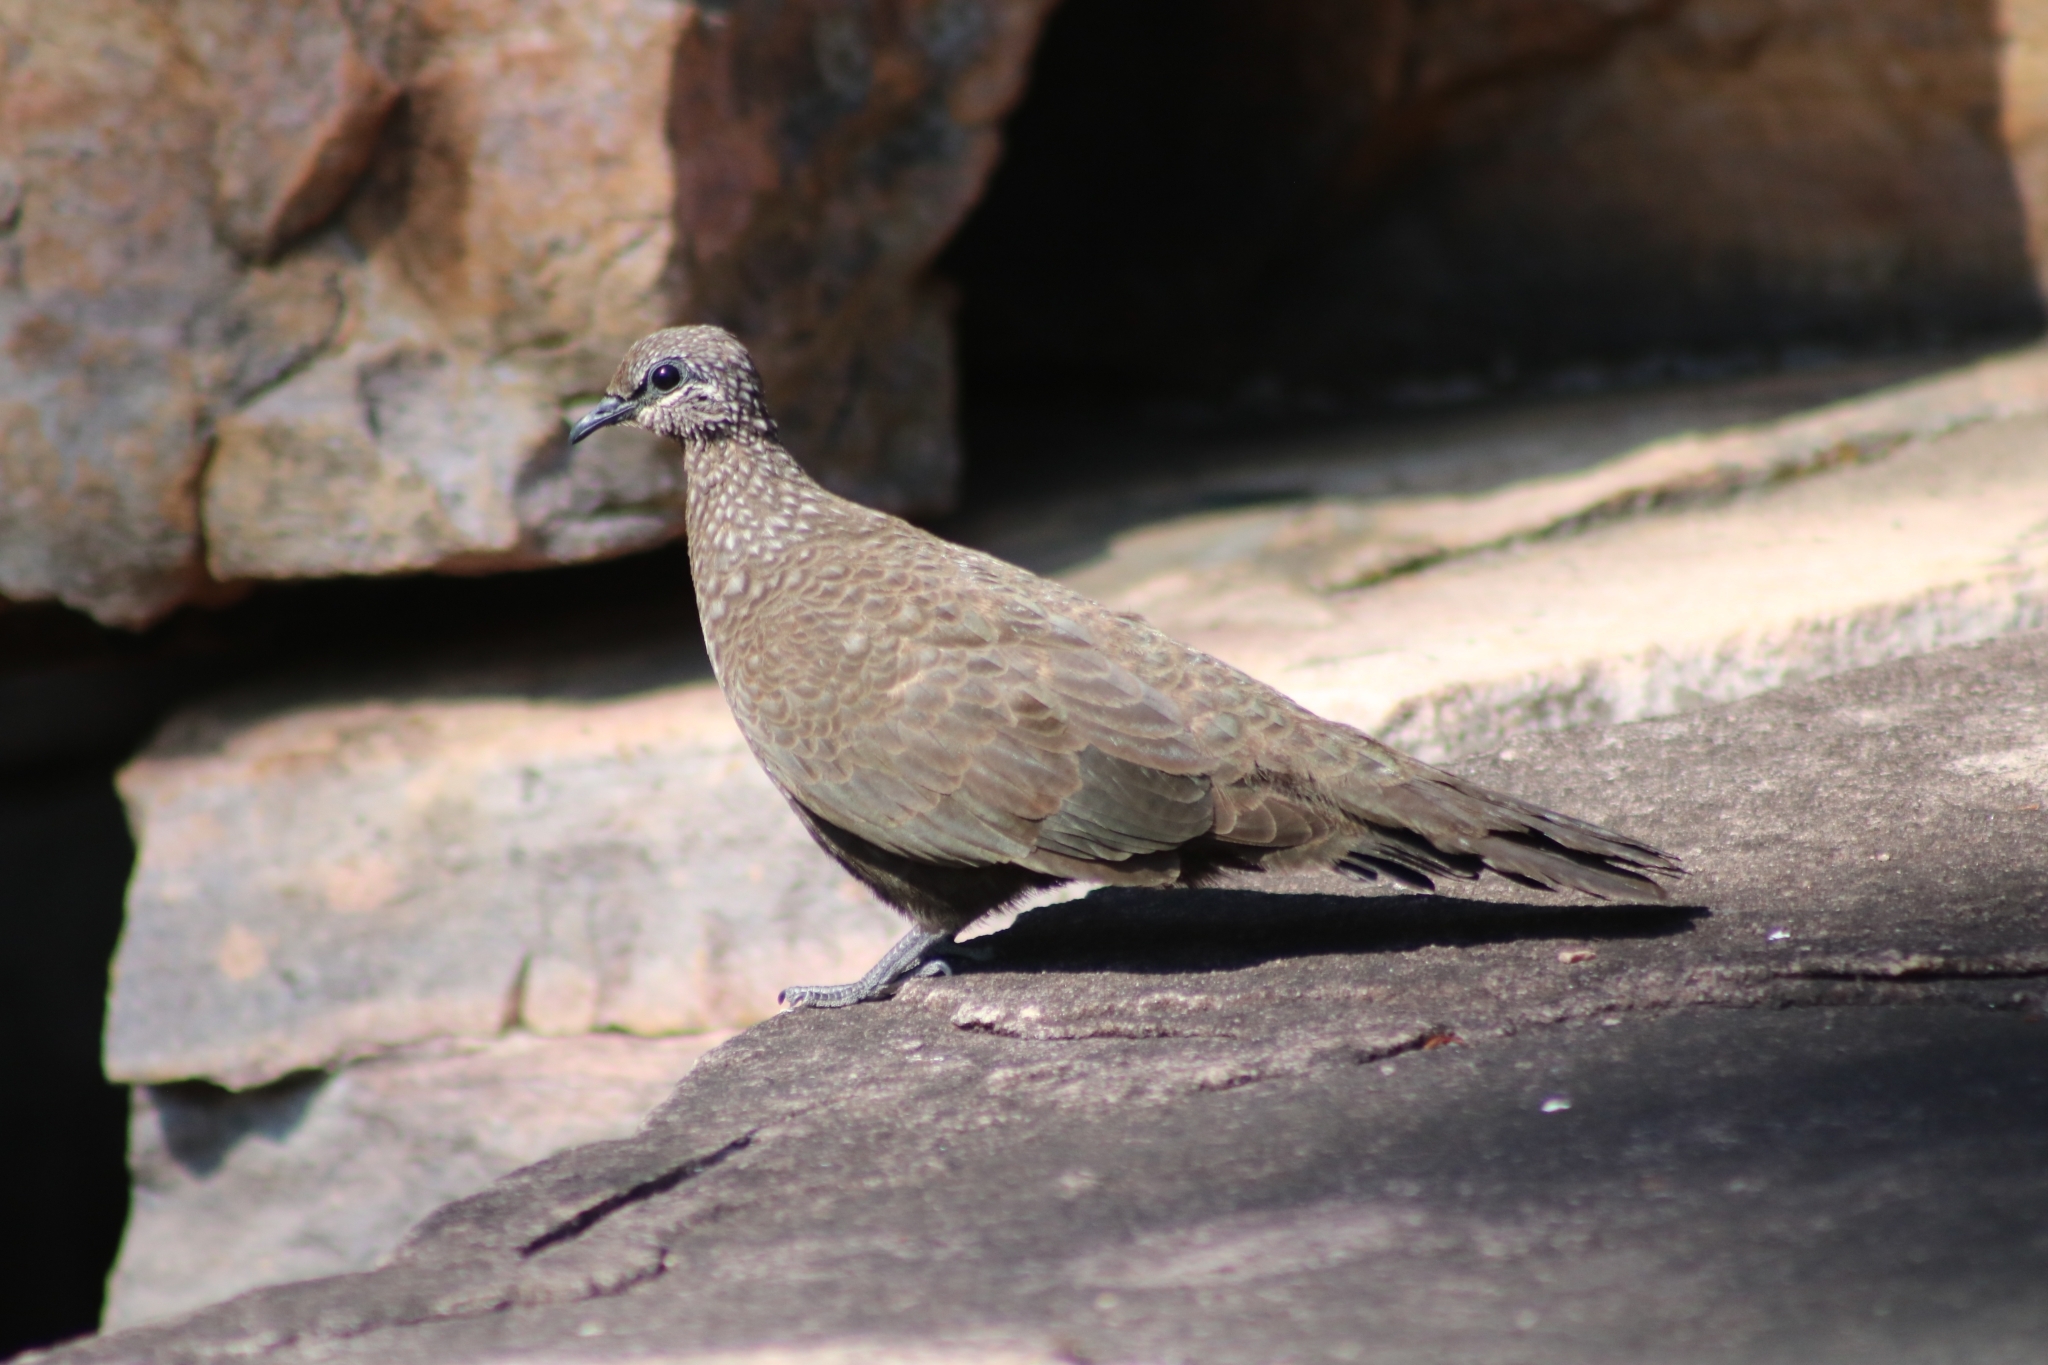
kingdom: Animalia
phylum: Chordata
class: Aves
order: Columbiformes
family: Columbidae
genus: Petrophassa
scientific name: Petrophassa rufipennis
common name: Chestnut-quilled rock pigeon
